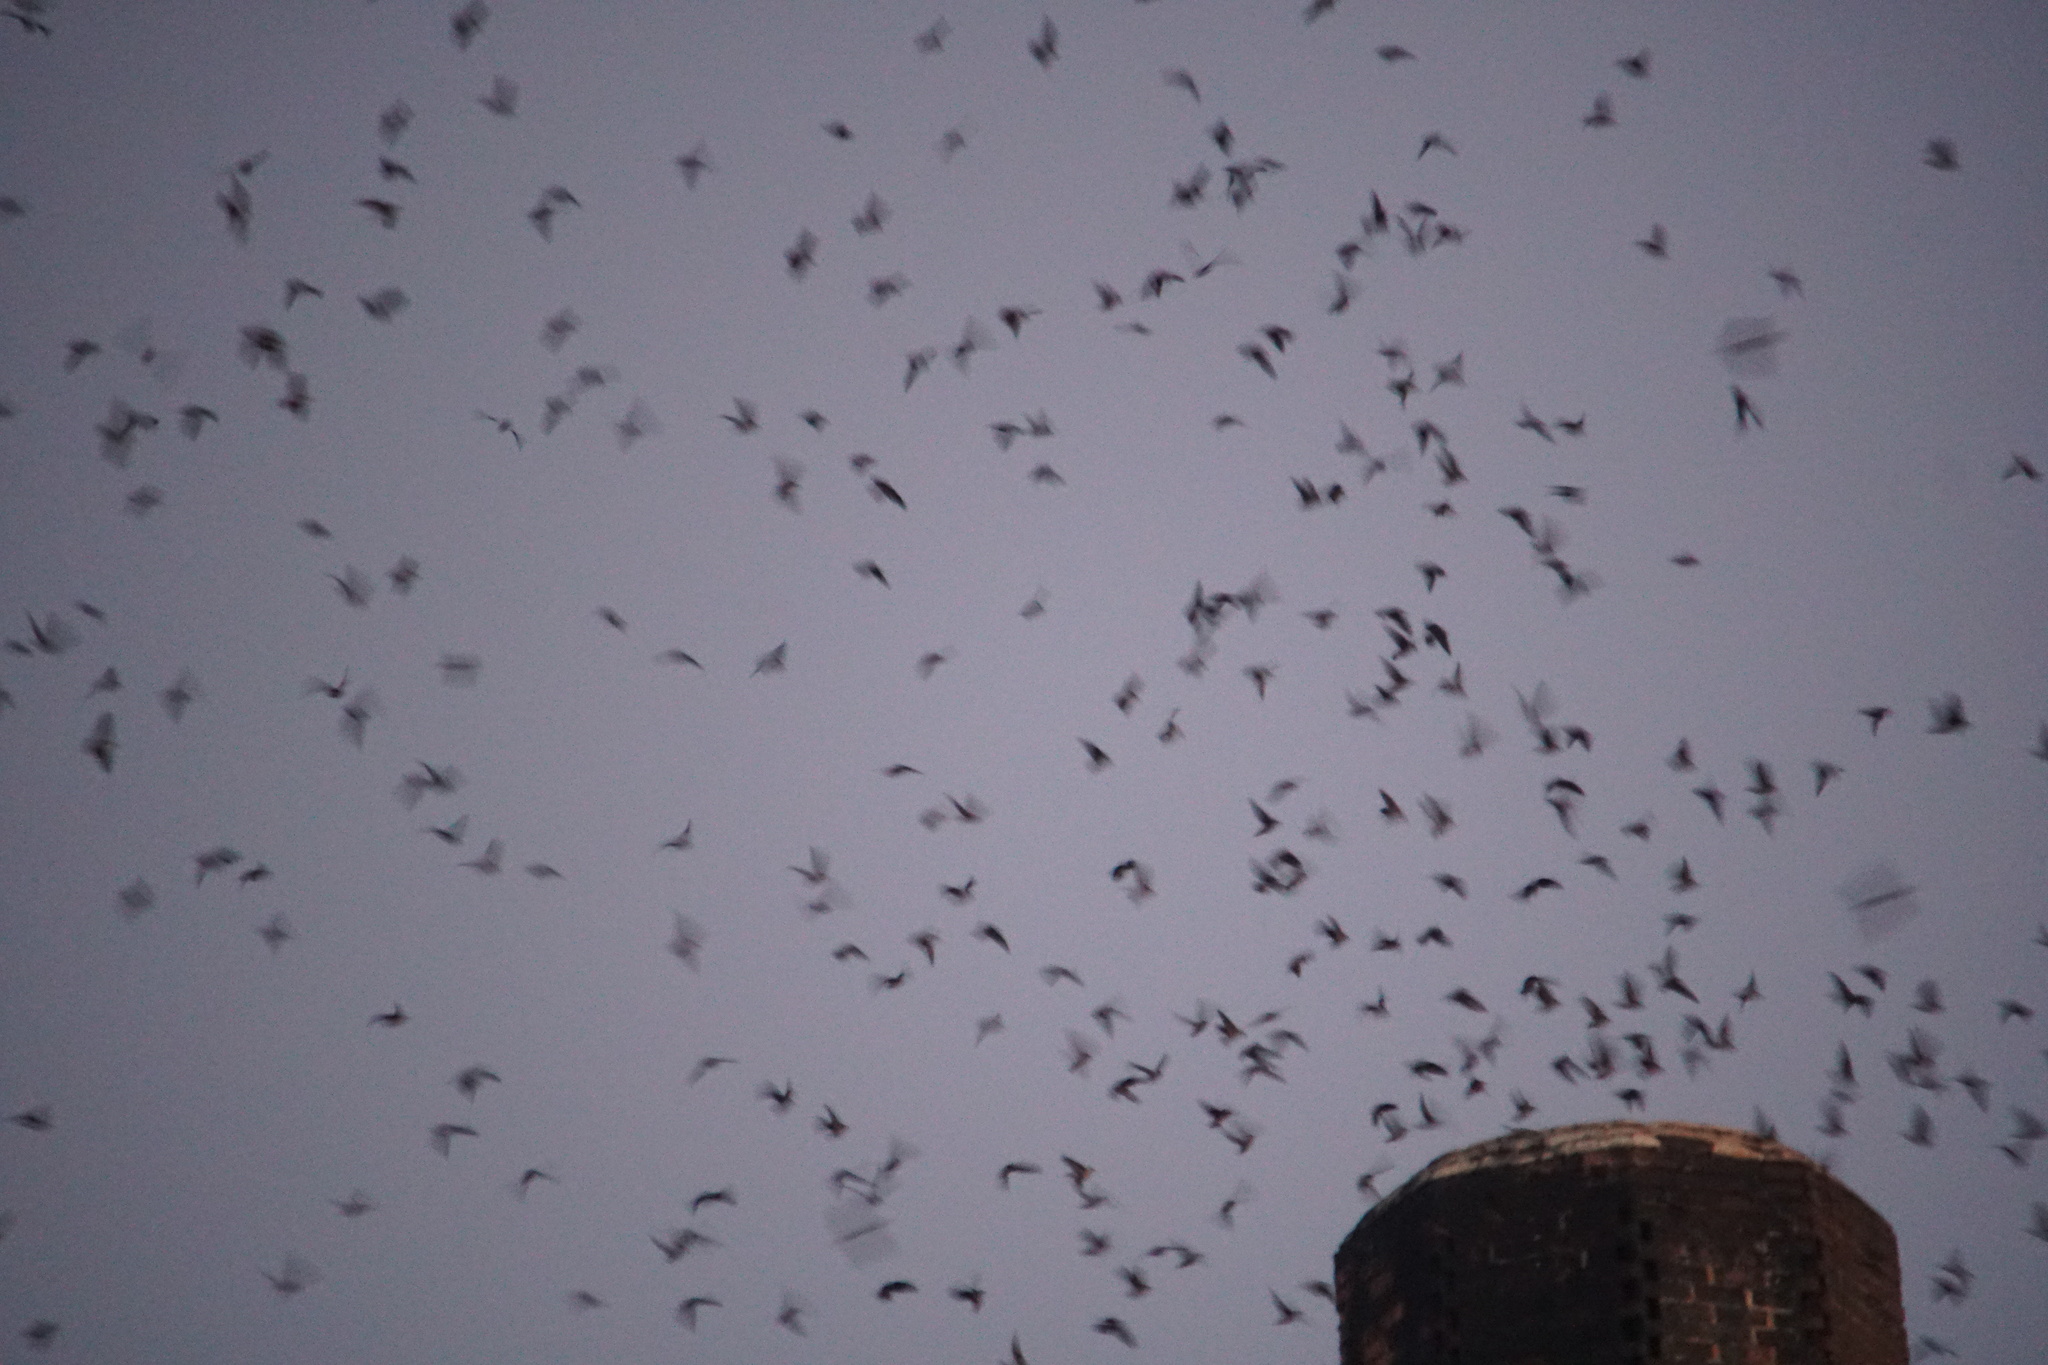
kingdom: Animalia
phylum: Chordata
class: Aves
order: Apodiformes
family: Apodidae
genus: Chaetura
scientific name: Chaetura vauxi
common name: Vaux's swift
